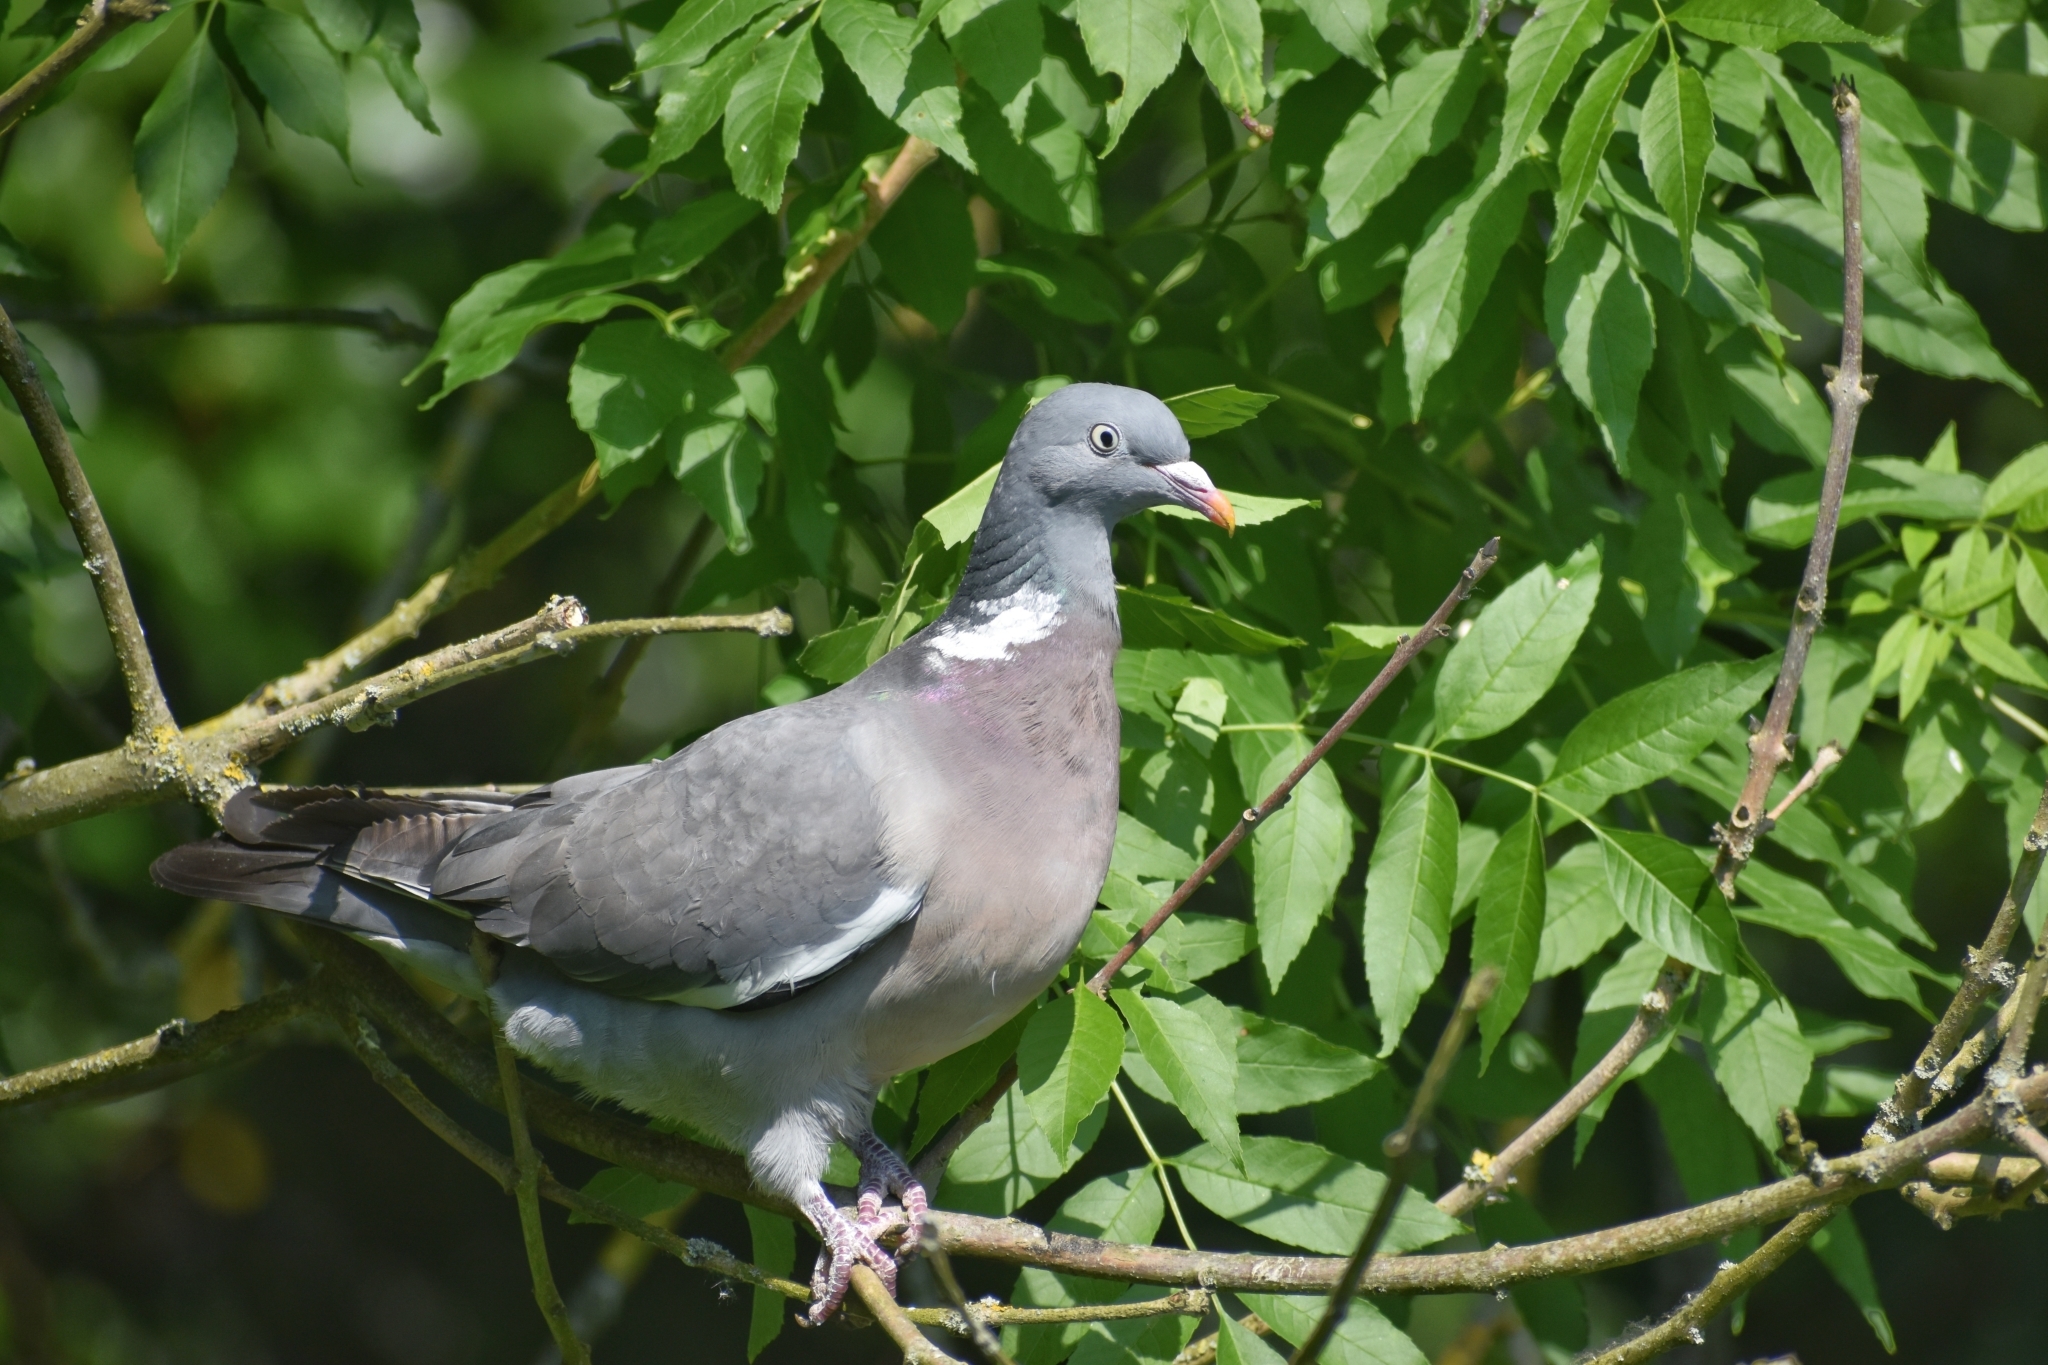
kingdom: Animalia
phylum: Chordata
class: Aves
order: Columbiformes
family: Columbidae
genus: Columba
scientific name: Columba palumbus
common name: Common wood pigeon
